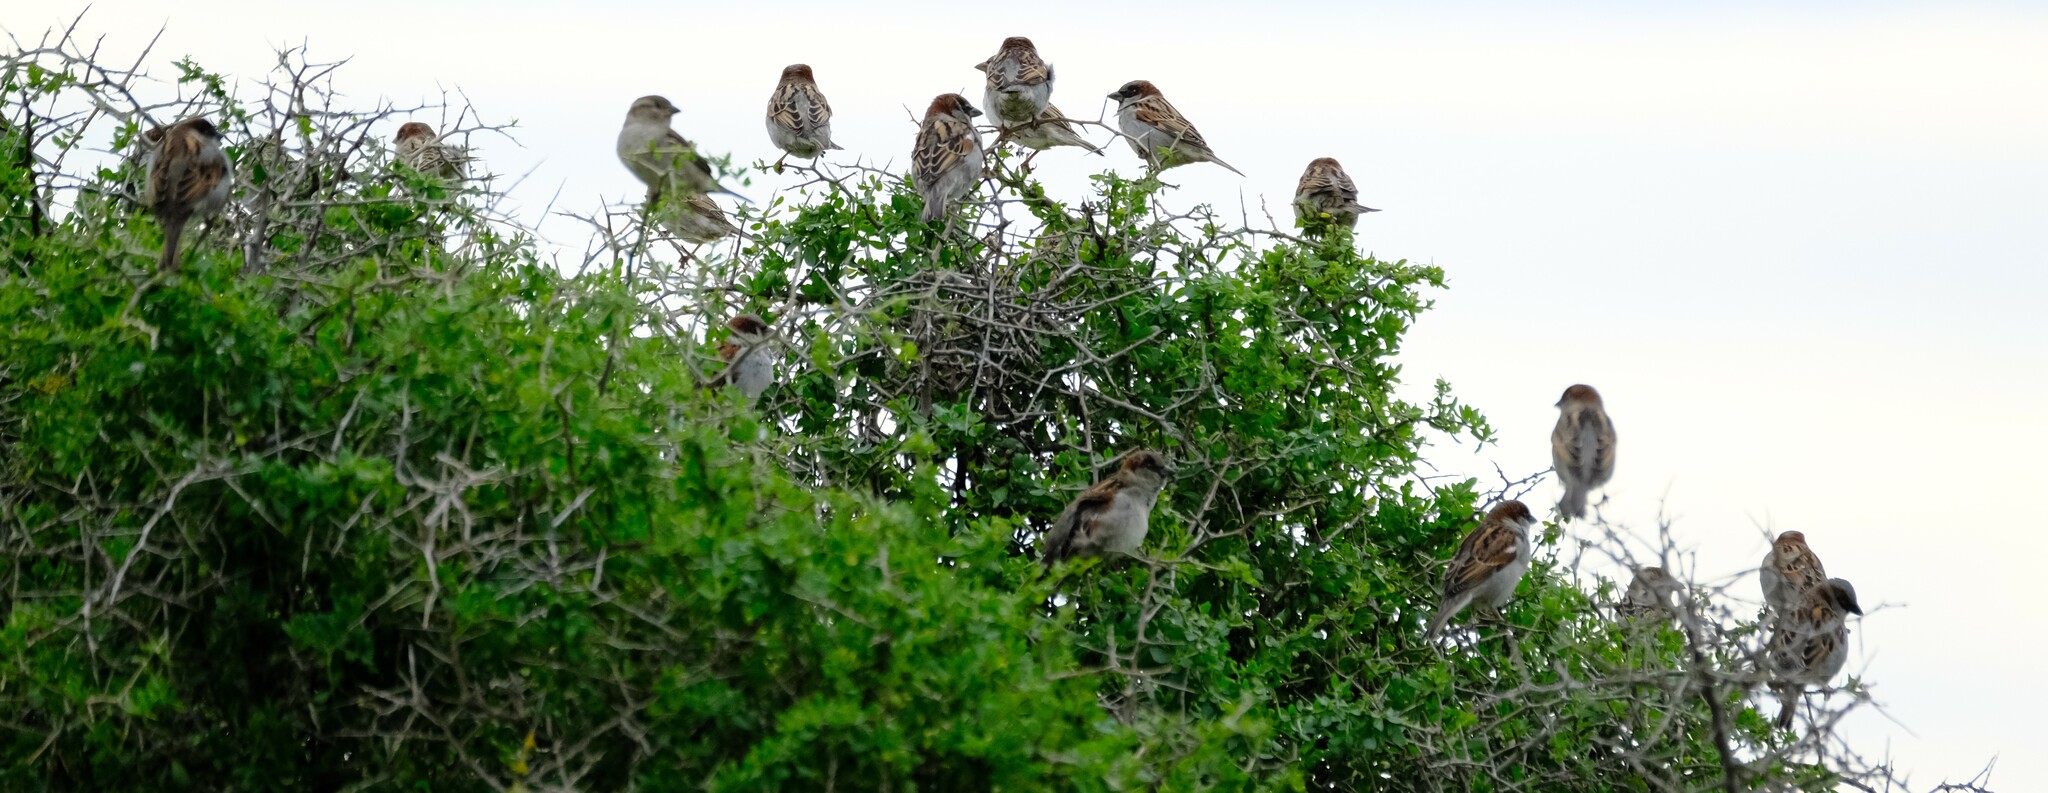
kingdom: Animalia
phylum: Chordata
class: Aves
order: Passeriformes
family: Passeridae
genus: Passer
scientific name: Passer domesticus
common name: House sparrow
